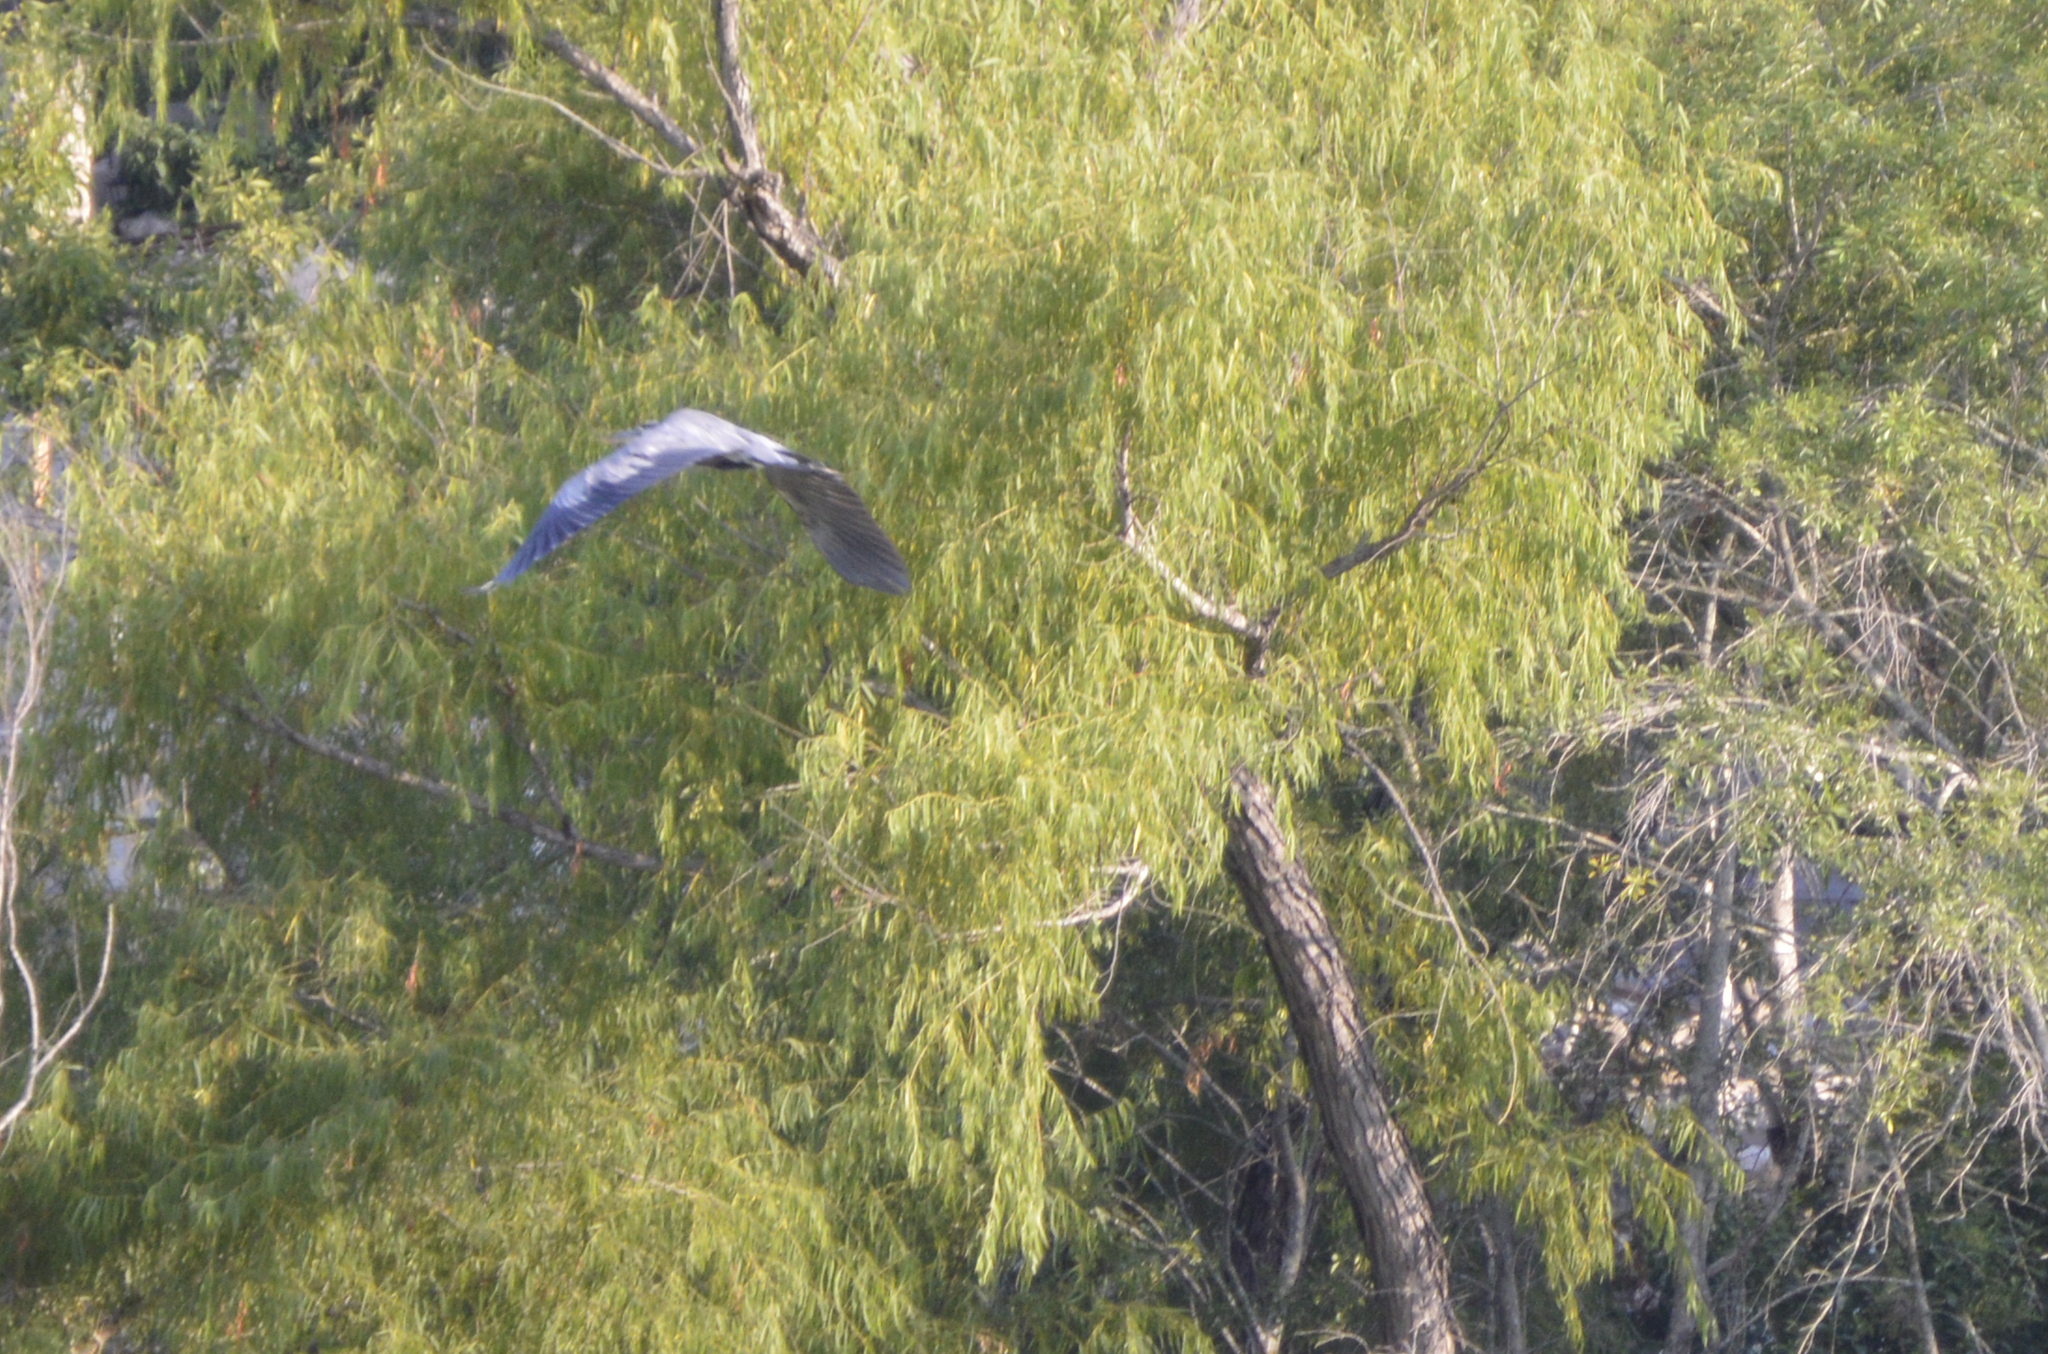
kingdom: Animalia
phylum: Chordata
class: Aves
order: Pelecaniformes
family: Ardeidae
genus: Ardea
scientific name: Ardea herodias
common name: Great blue heron
